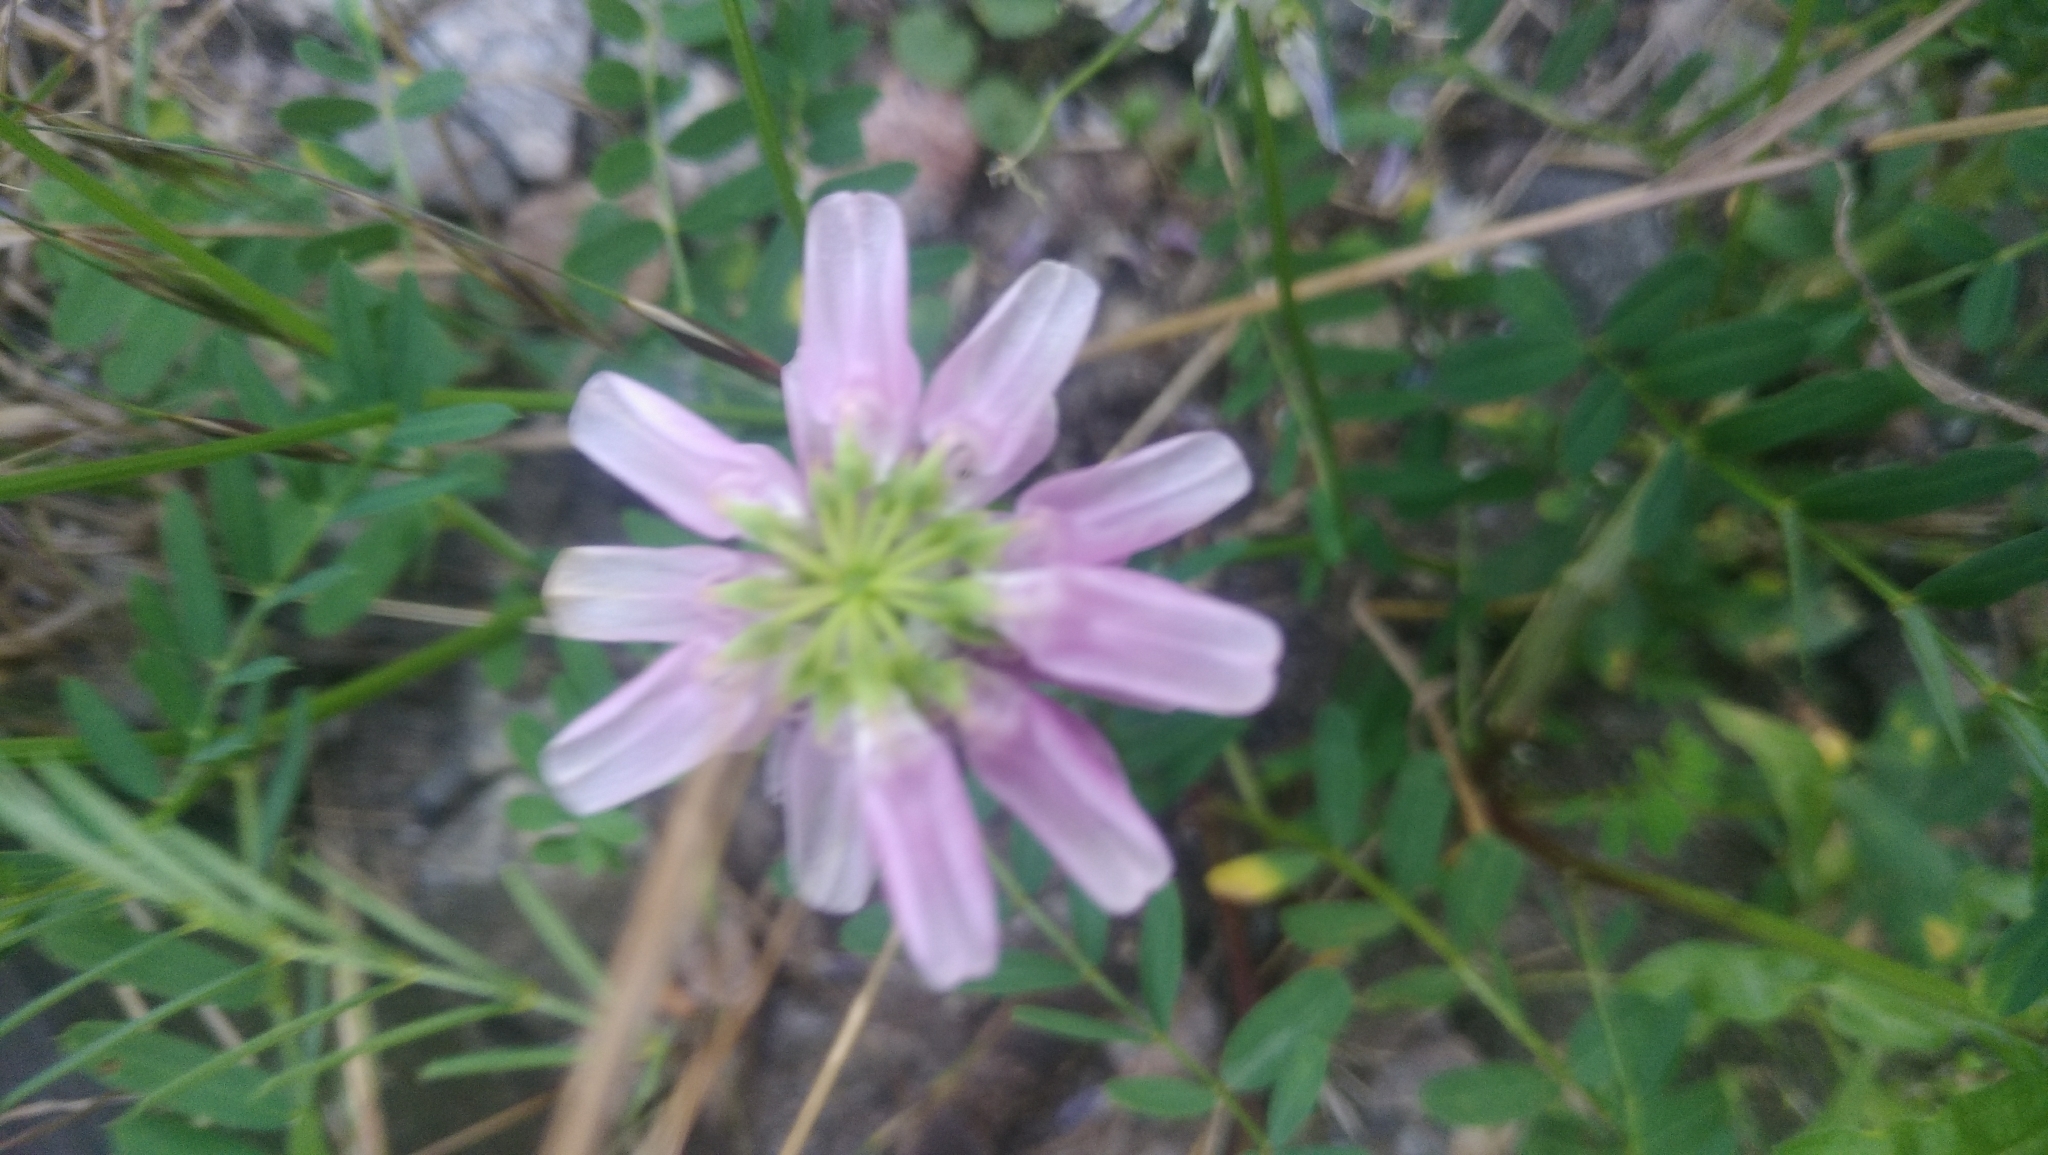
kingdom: Plantae
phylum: Tracheophyta
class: Magnoliopsida
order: Fabales
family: Fabaceae
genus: Coronilla
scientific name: Coronilla varia
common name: Crownvetch
